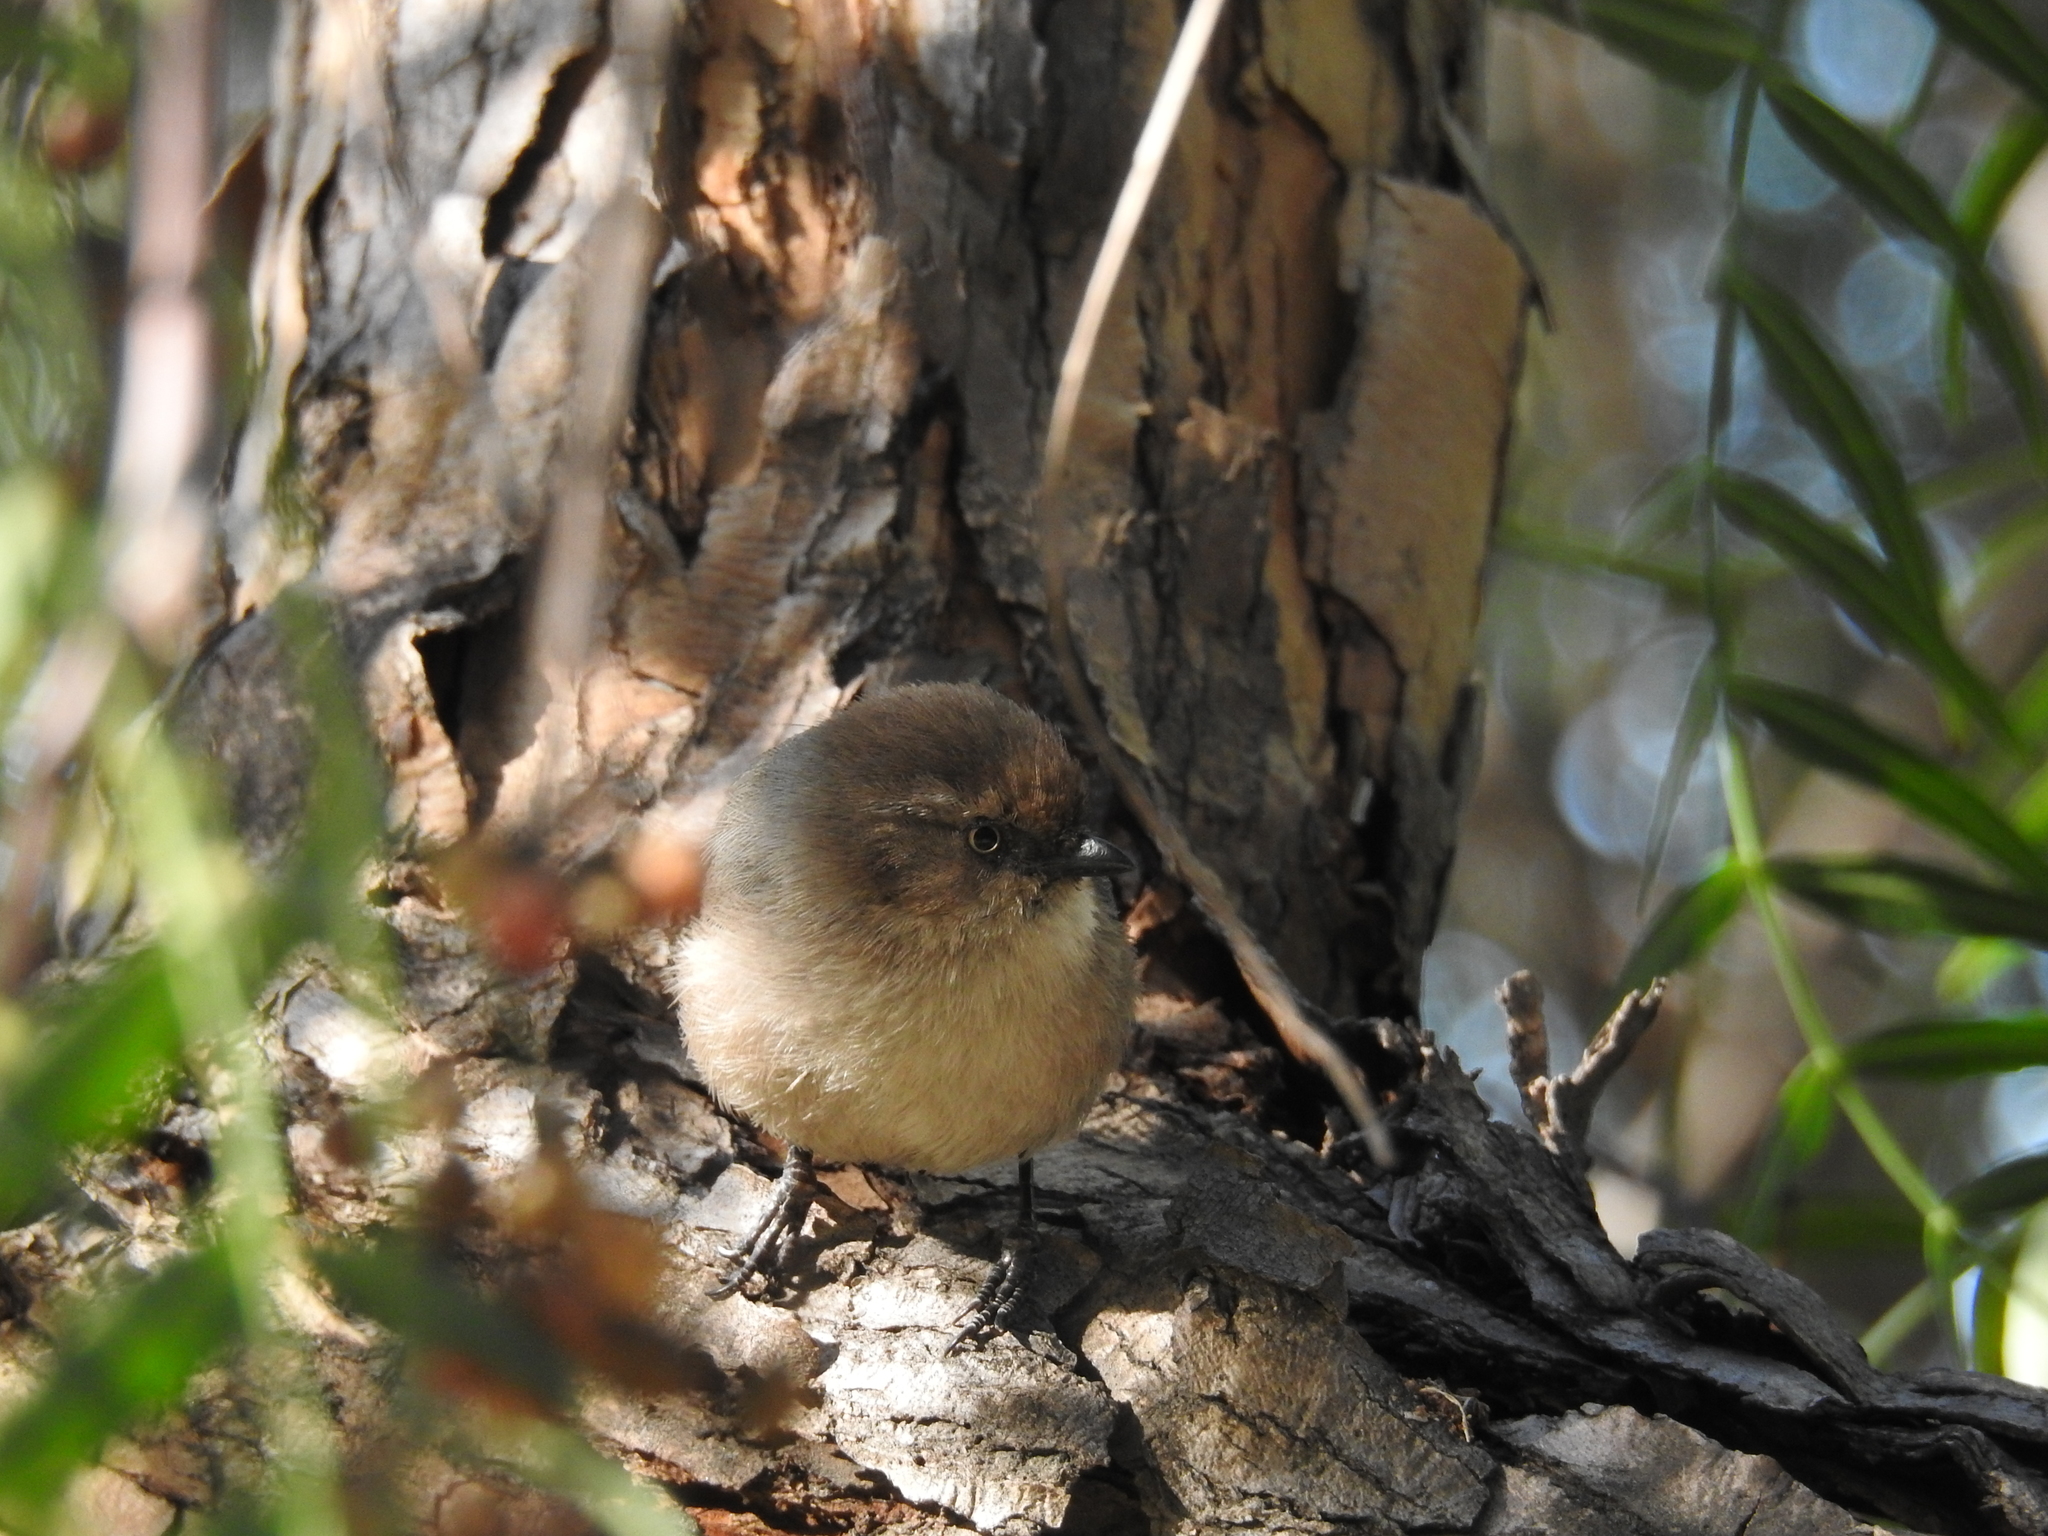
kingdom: Animalia
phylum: Chordata
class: Aves
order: Passeriformes
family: Aegithalidae
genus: Psaltriparus
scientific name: Psaltriparus minimus
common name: American bushtit
